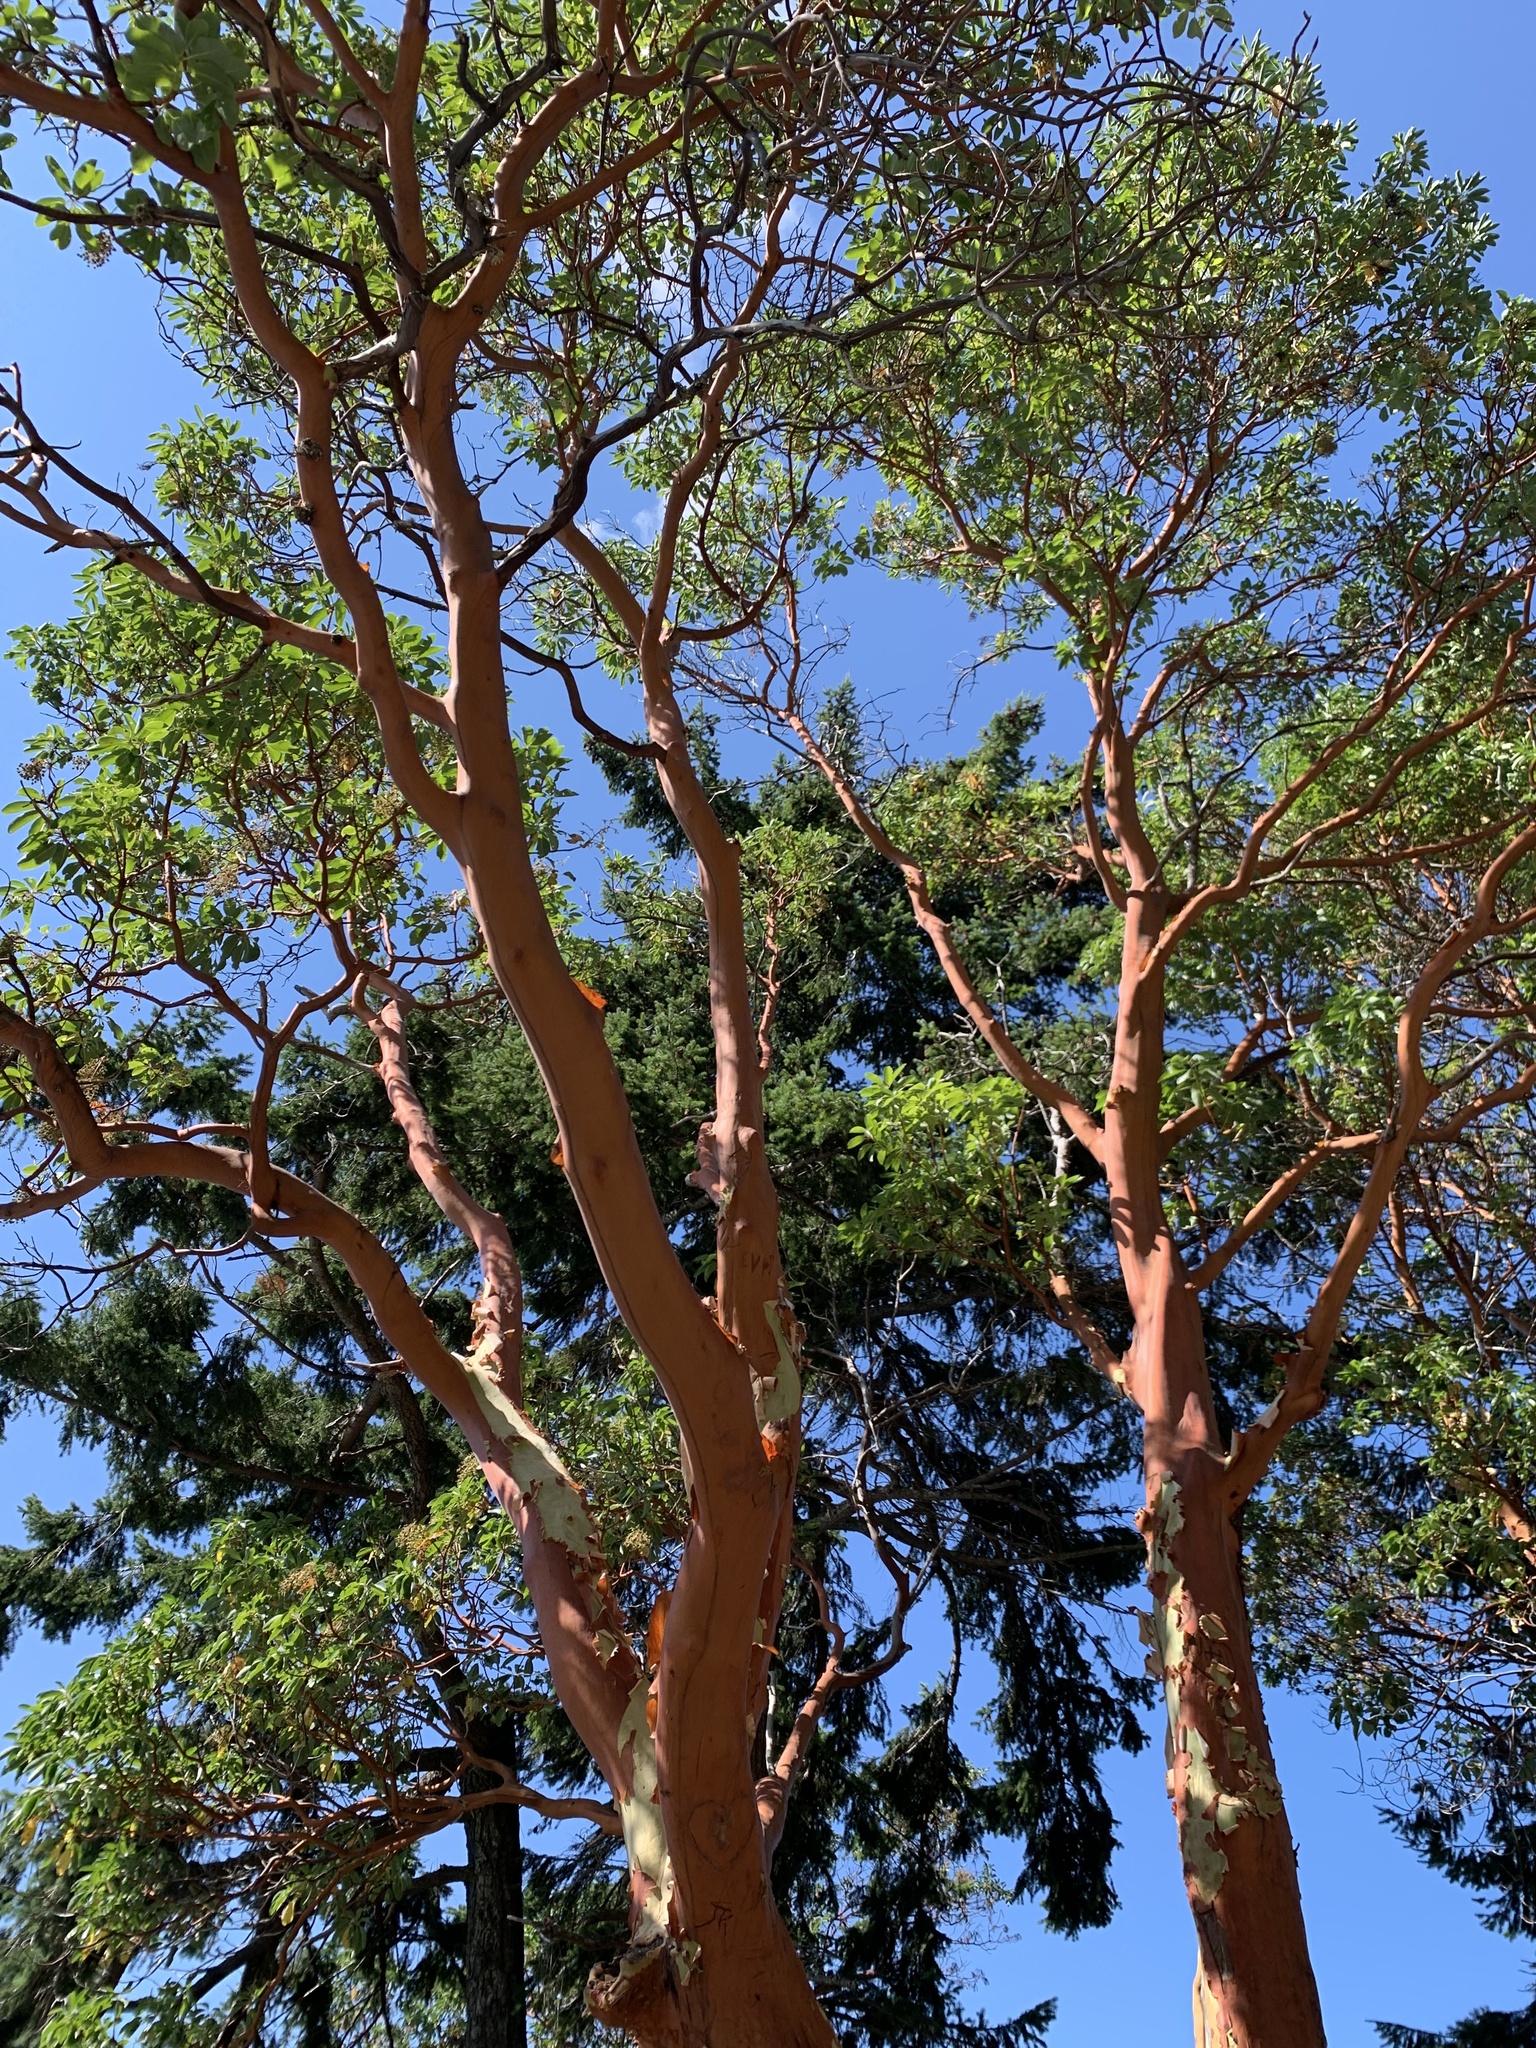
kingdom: Plantae
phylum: Tracheophyta
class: Magnoliopsida
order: Ericales
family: Ericaceae
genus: Arbutus
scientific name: Arbutus menziesii
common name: Pacific madrone
